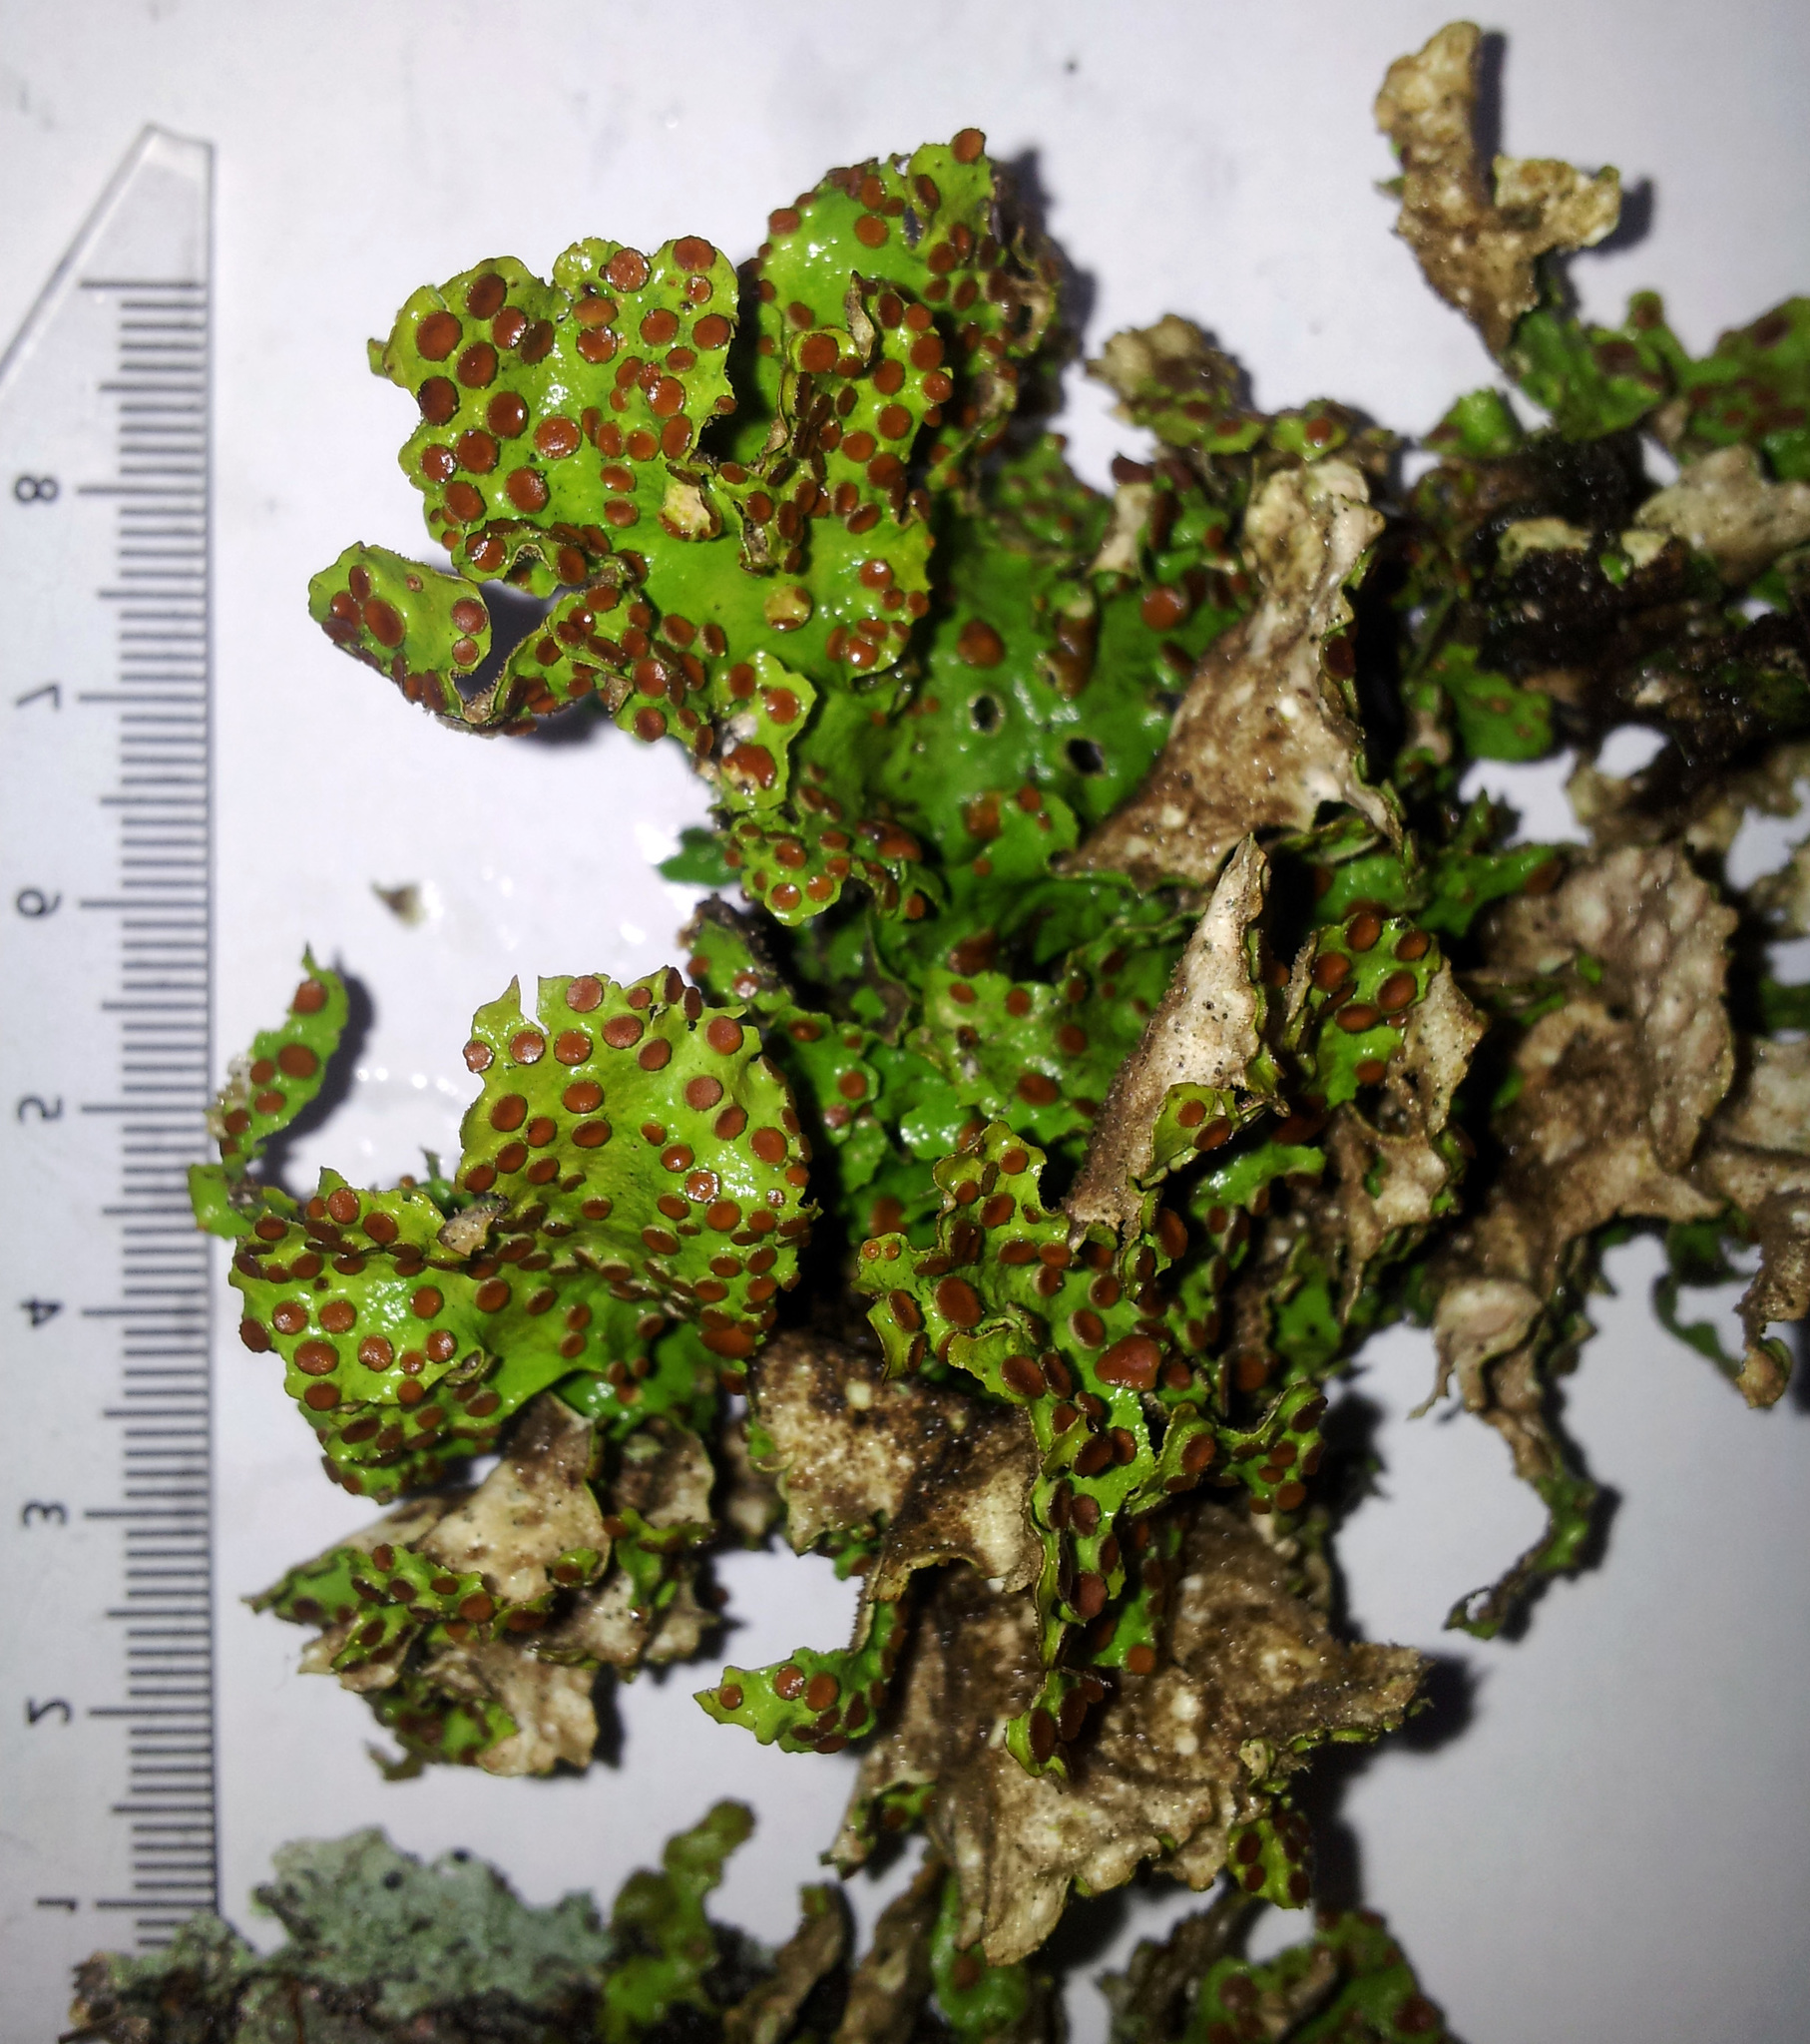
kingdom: Fungi
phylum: Ascomycota
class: Lecanoromycetes
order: Peltigerales
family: Lobariaceae
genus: Sticta
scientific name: Sticta cinereoglauca
